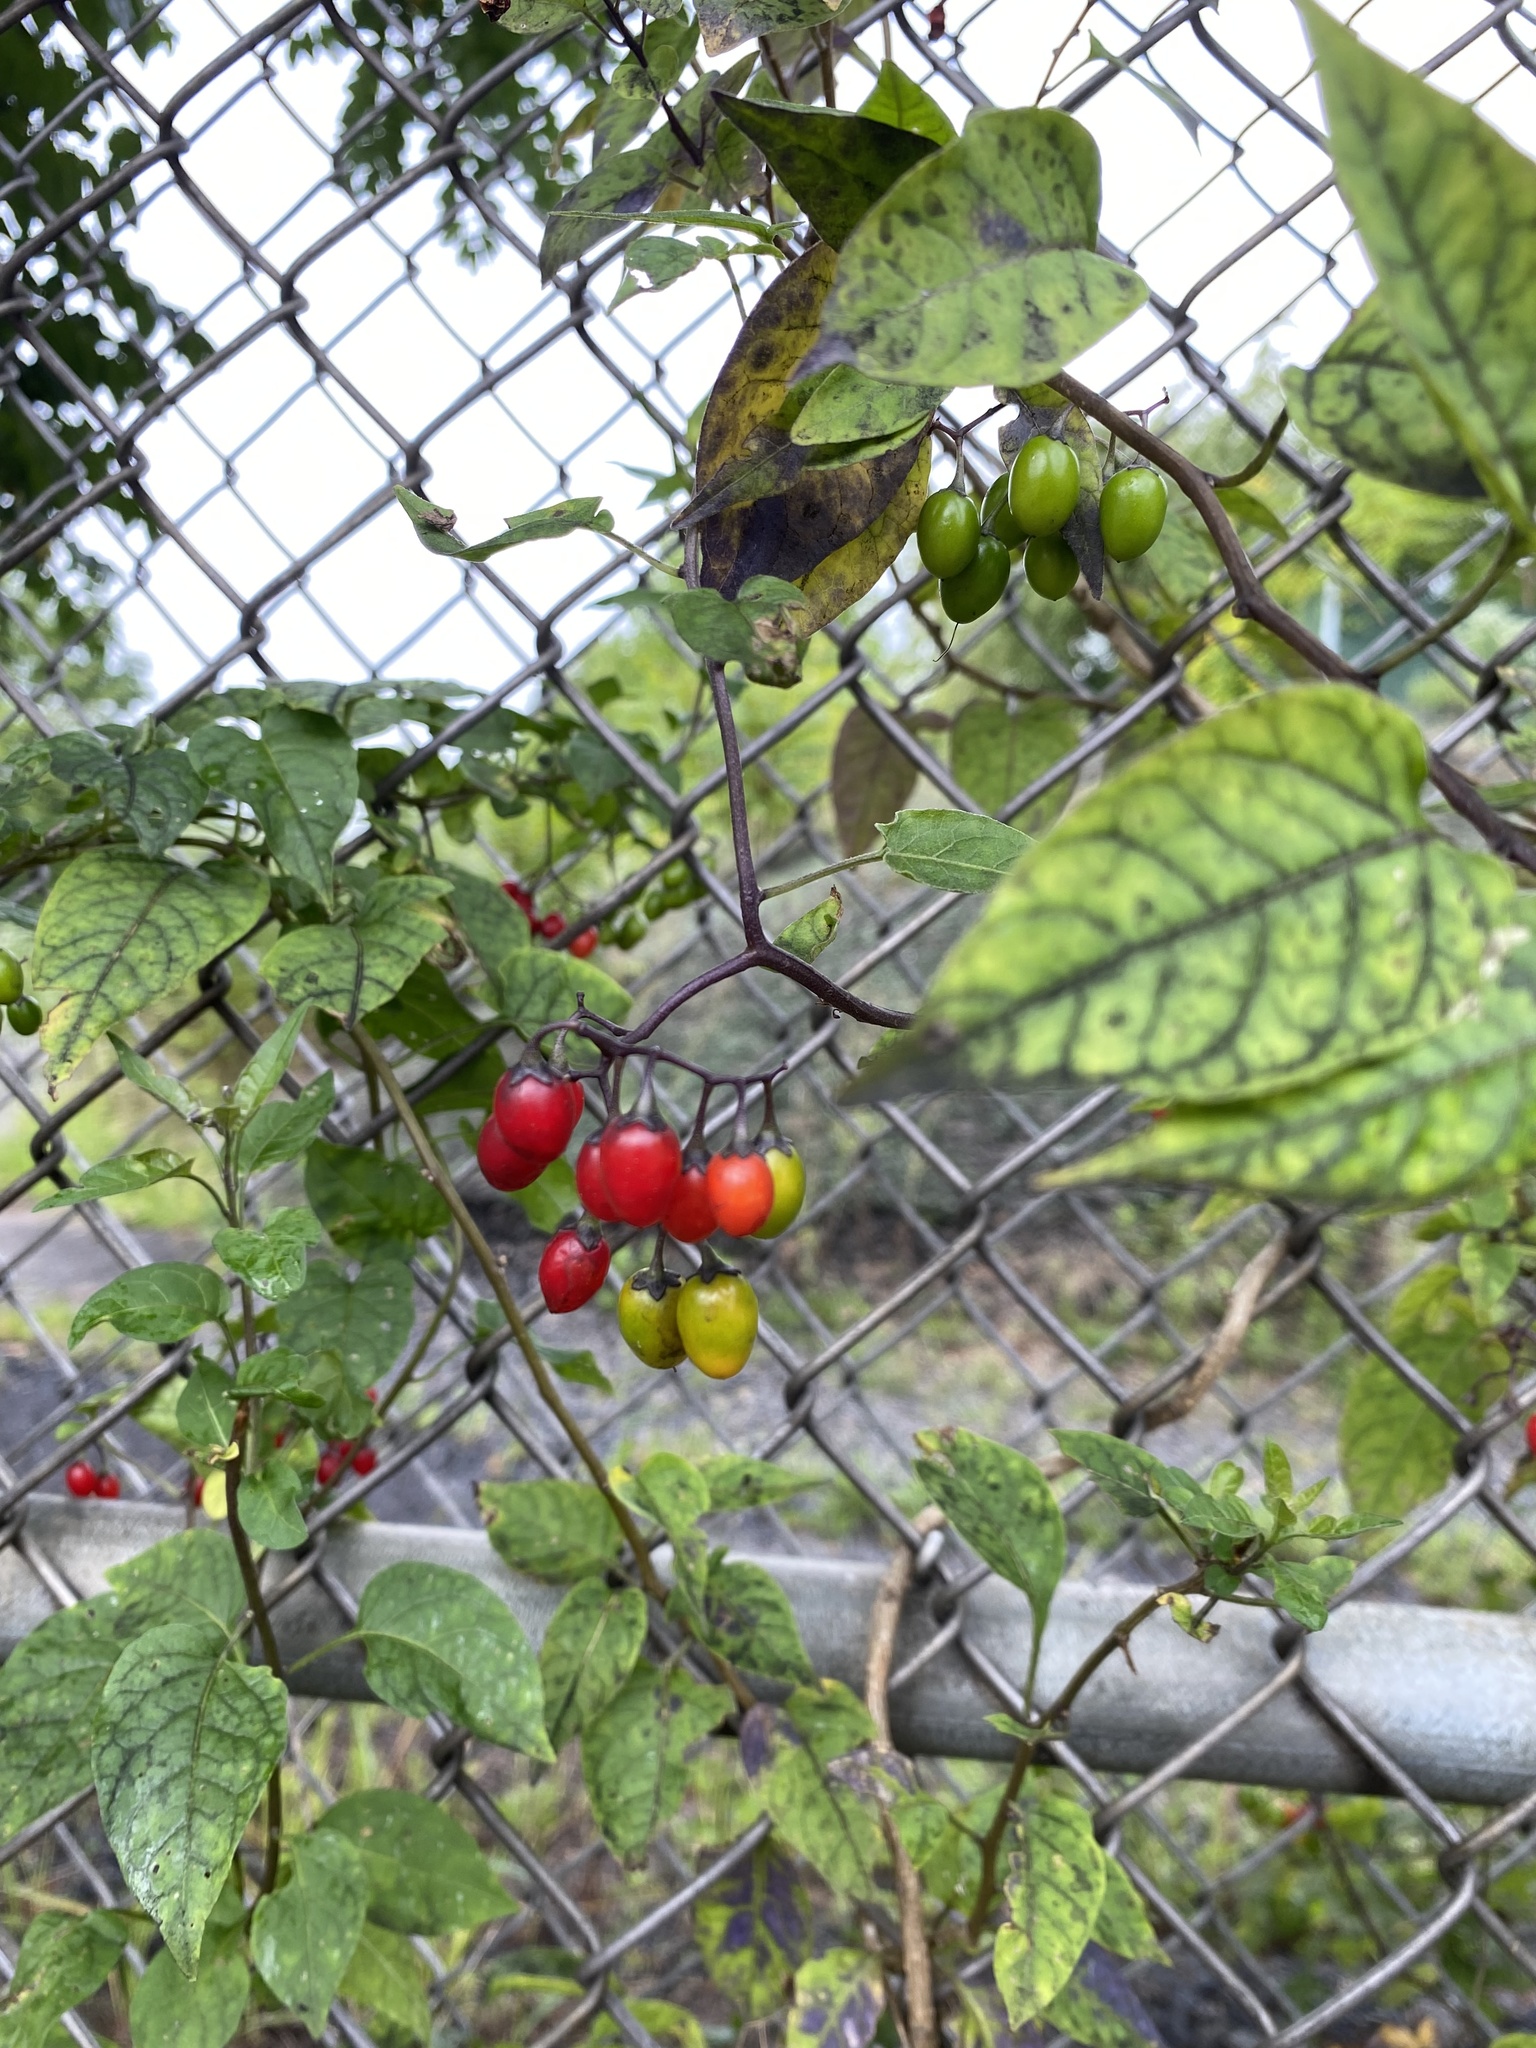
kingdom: Plantae
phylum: Tracheophyta
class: Magnoliopsida
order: Solanales
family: Solanaceae
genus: Solanum
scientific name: Solanum dulcamara
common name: Climbing nightshade
